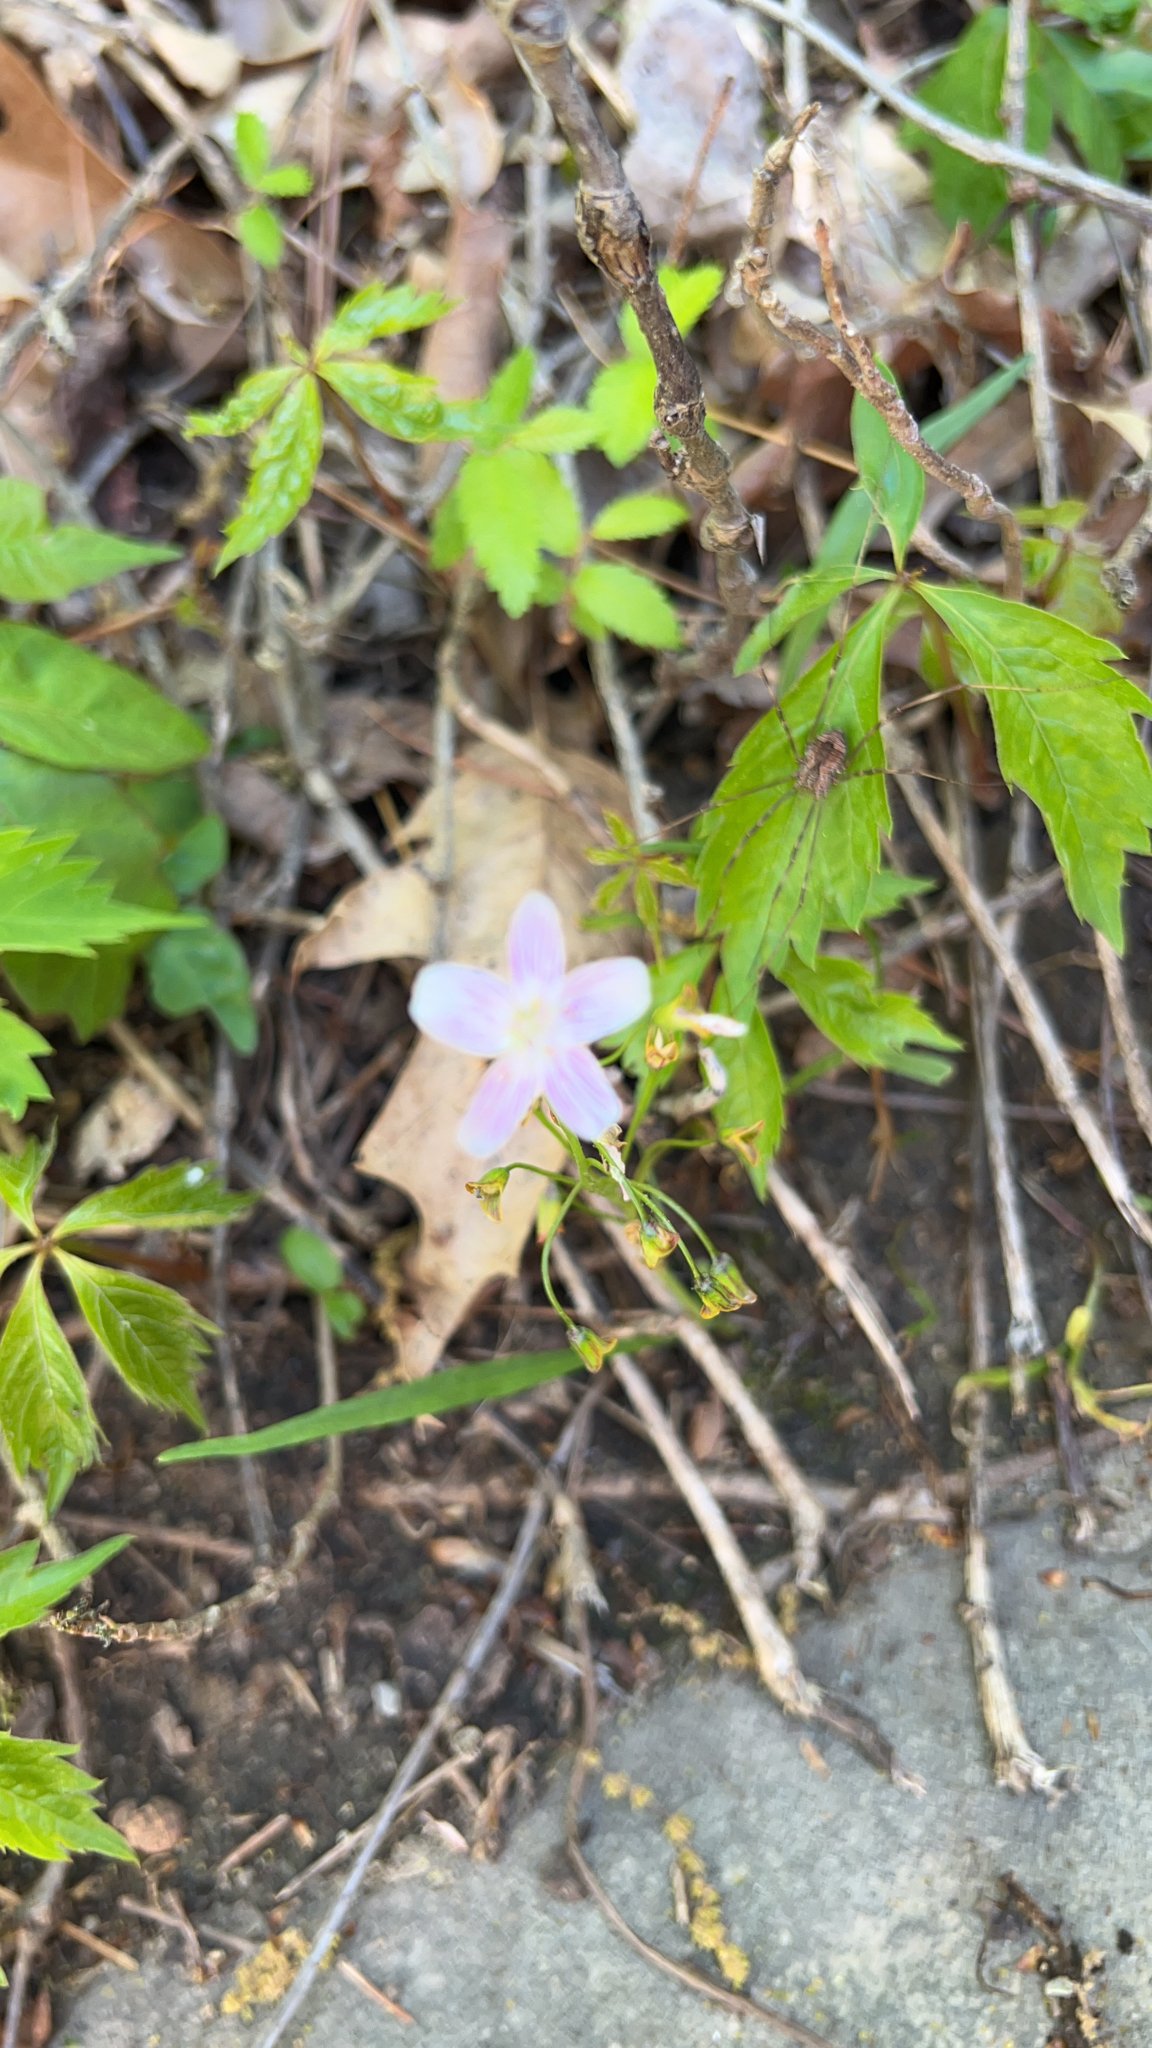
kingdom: Plantae
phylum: Tracheophyta
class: Magnoliopsida
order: Caryophyllales
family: Montiaceae
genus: Claytonia
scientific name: Claytonia virginica
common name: Virginia springbeauty
